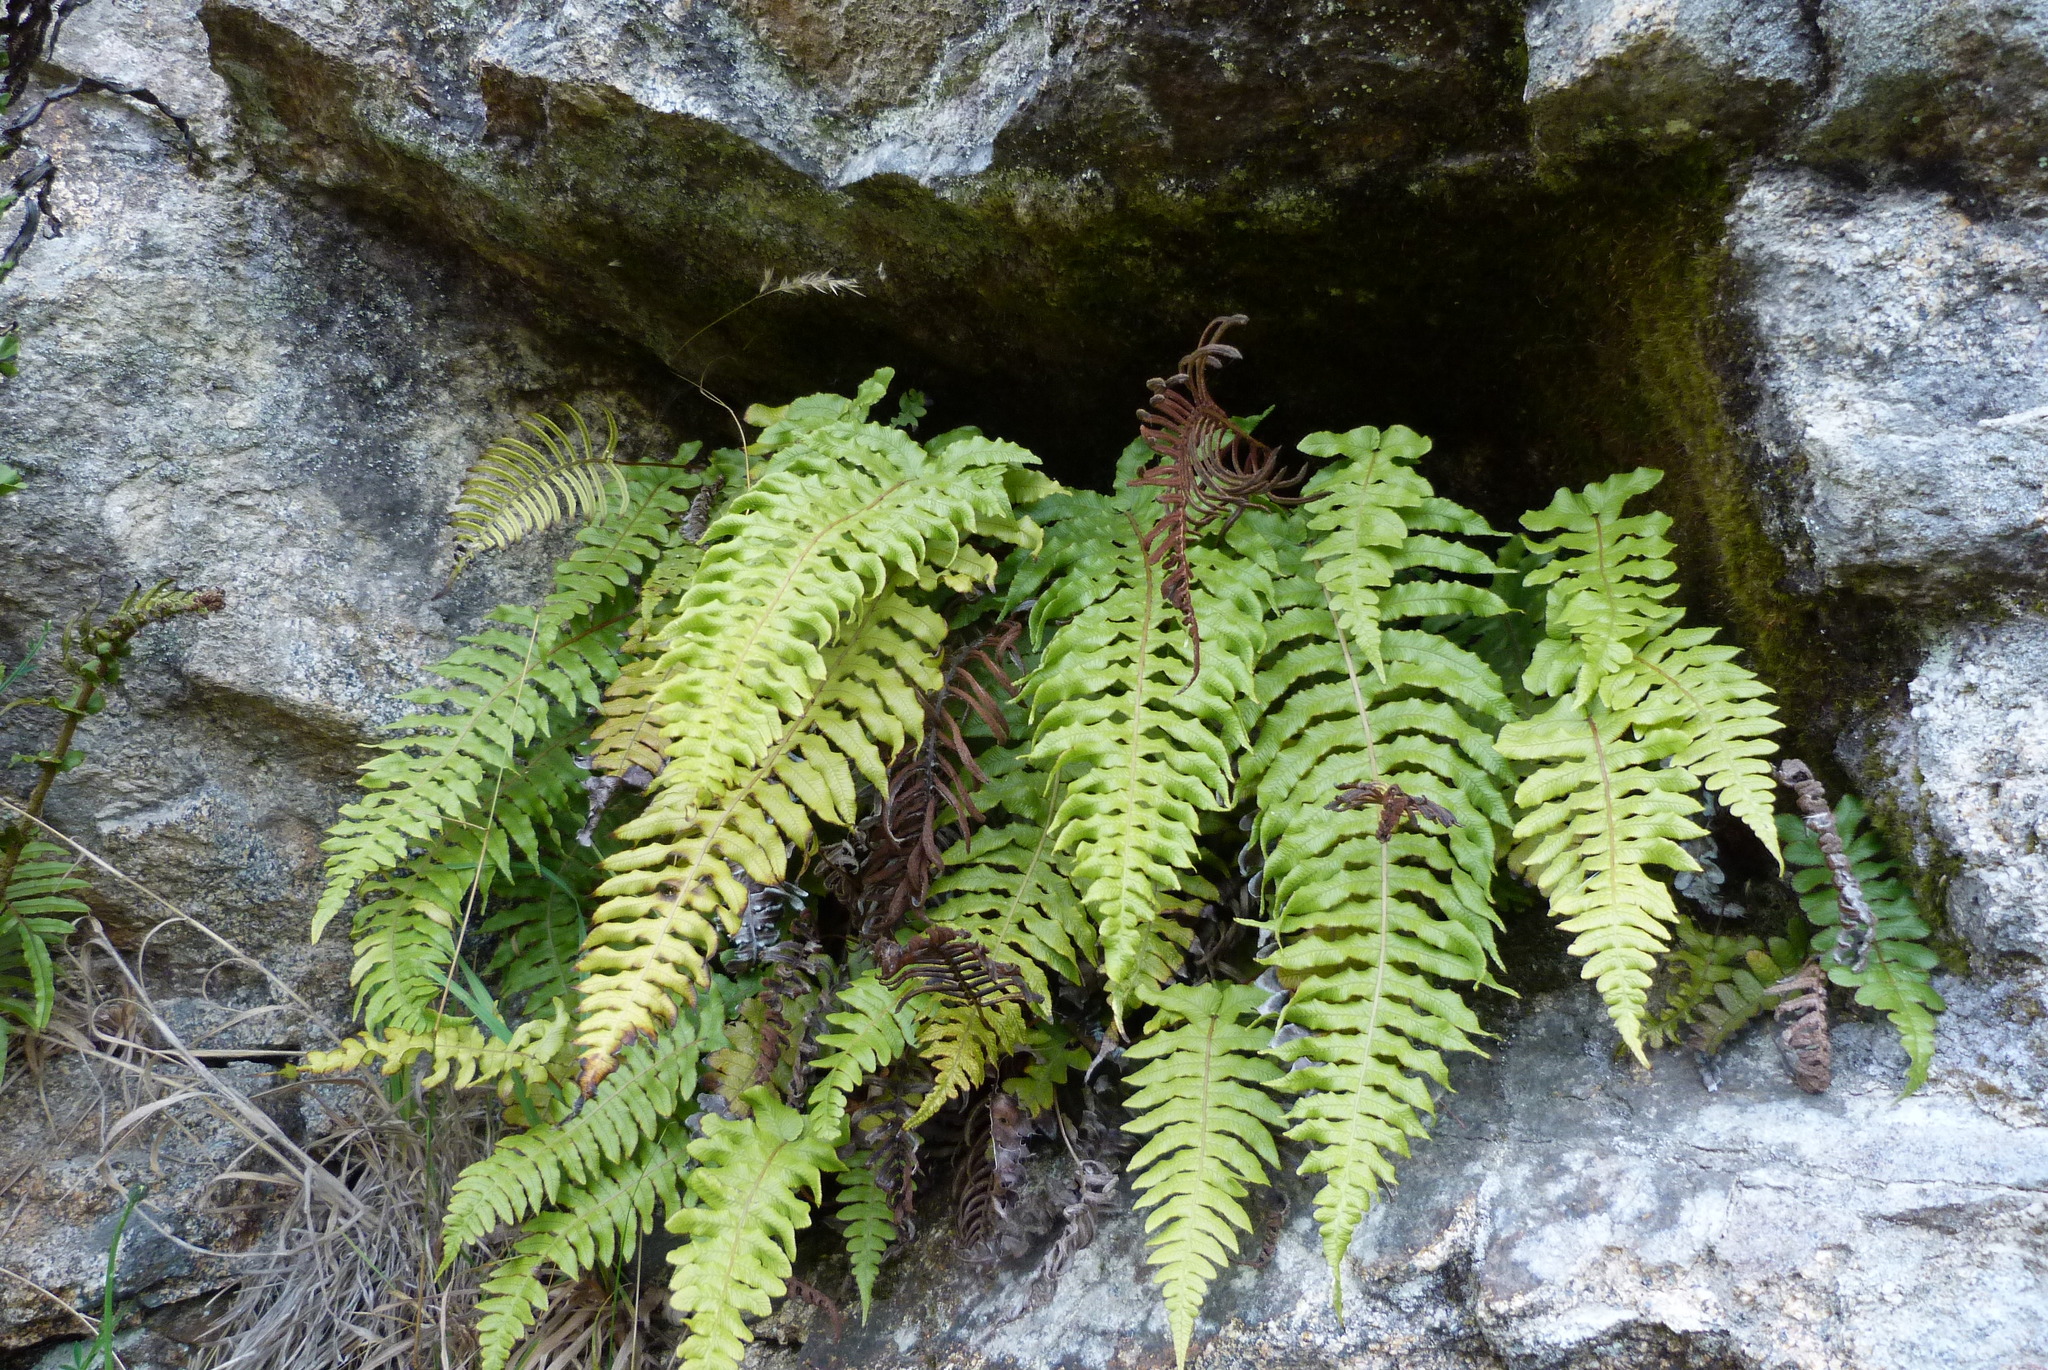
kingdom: Plantae
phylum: Tracheophyta
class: Polypodiopsida
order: Polypodiales
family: Blechnaceae
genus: Cranfillia
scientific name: Cranfillia vulcanica
